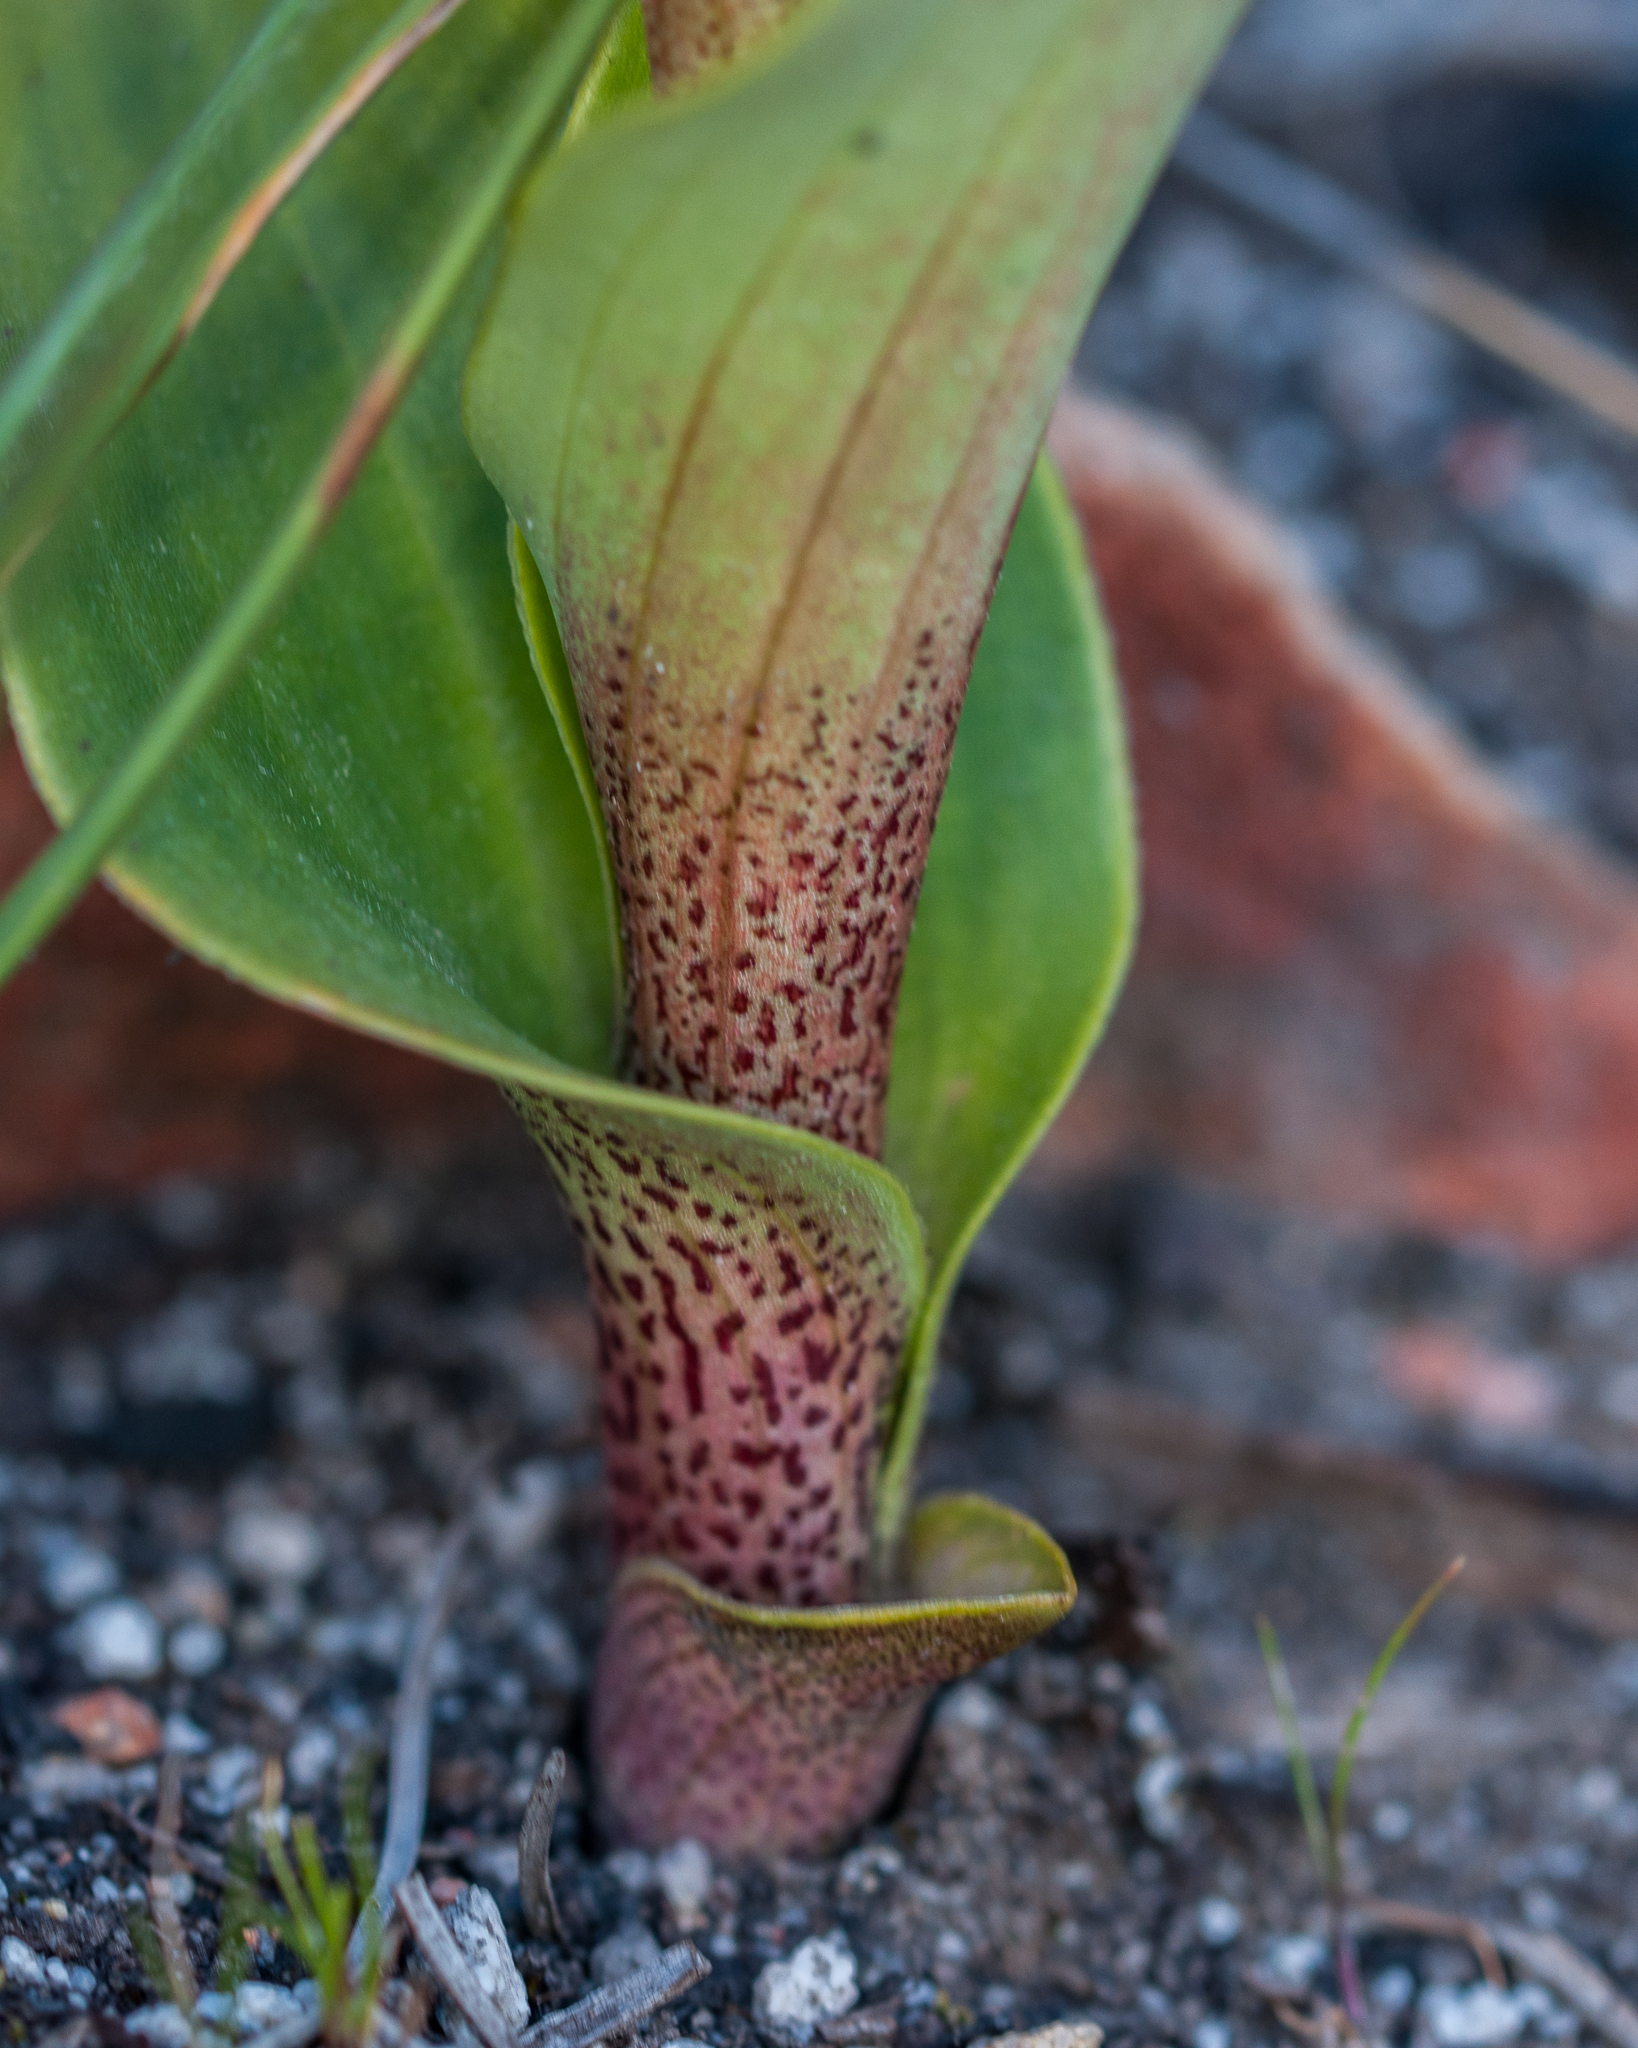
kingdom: Plantae
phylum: Tracheophyta
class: Liliopsida
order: Asparagales
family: Orchidaceae
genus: Satyrium
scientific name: Satyrium coriifolium
